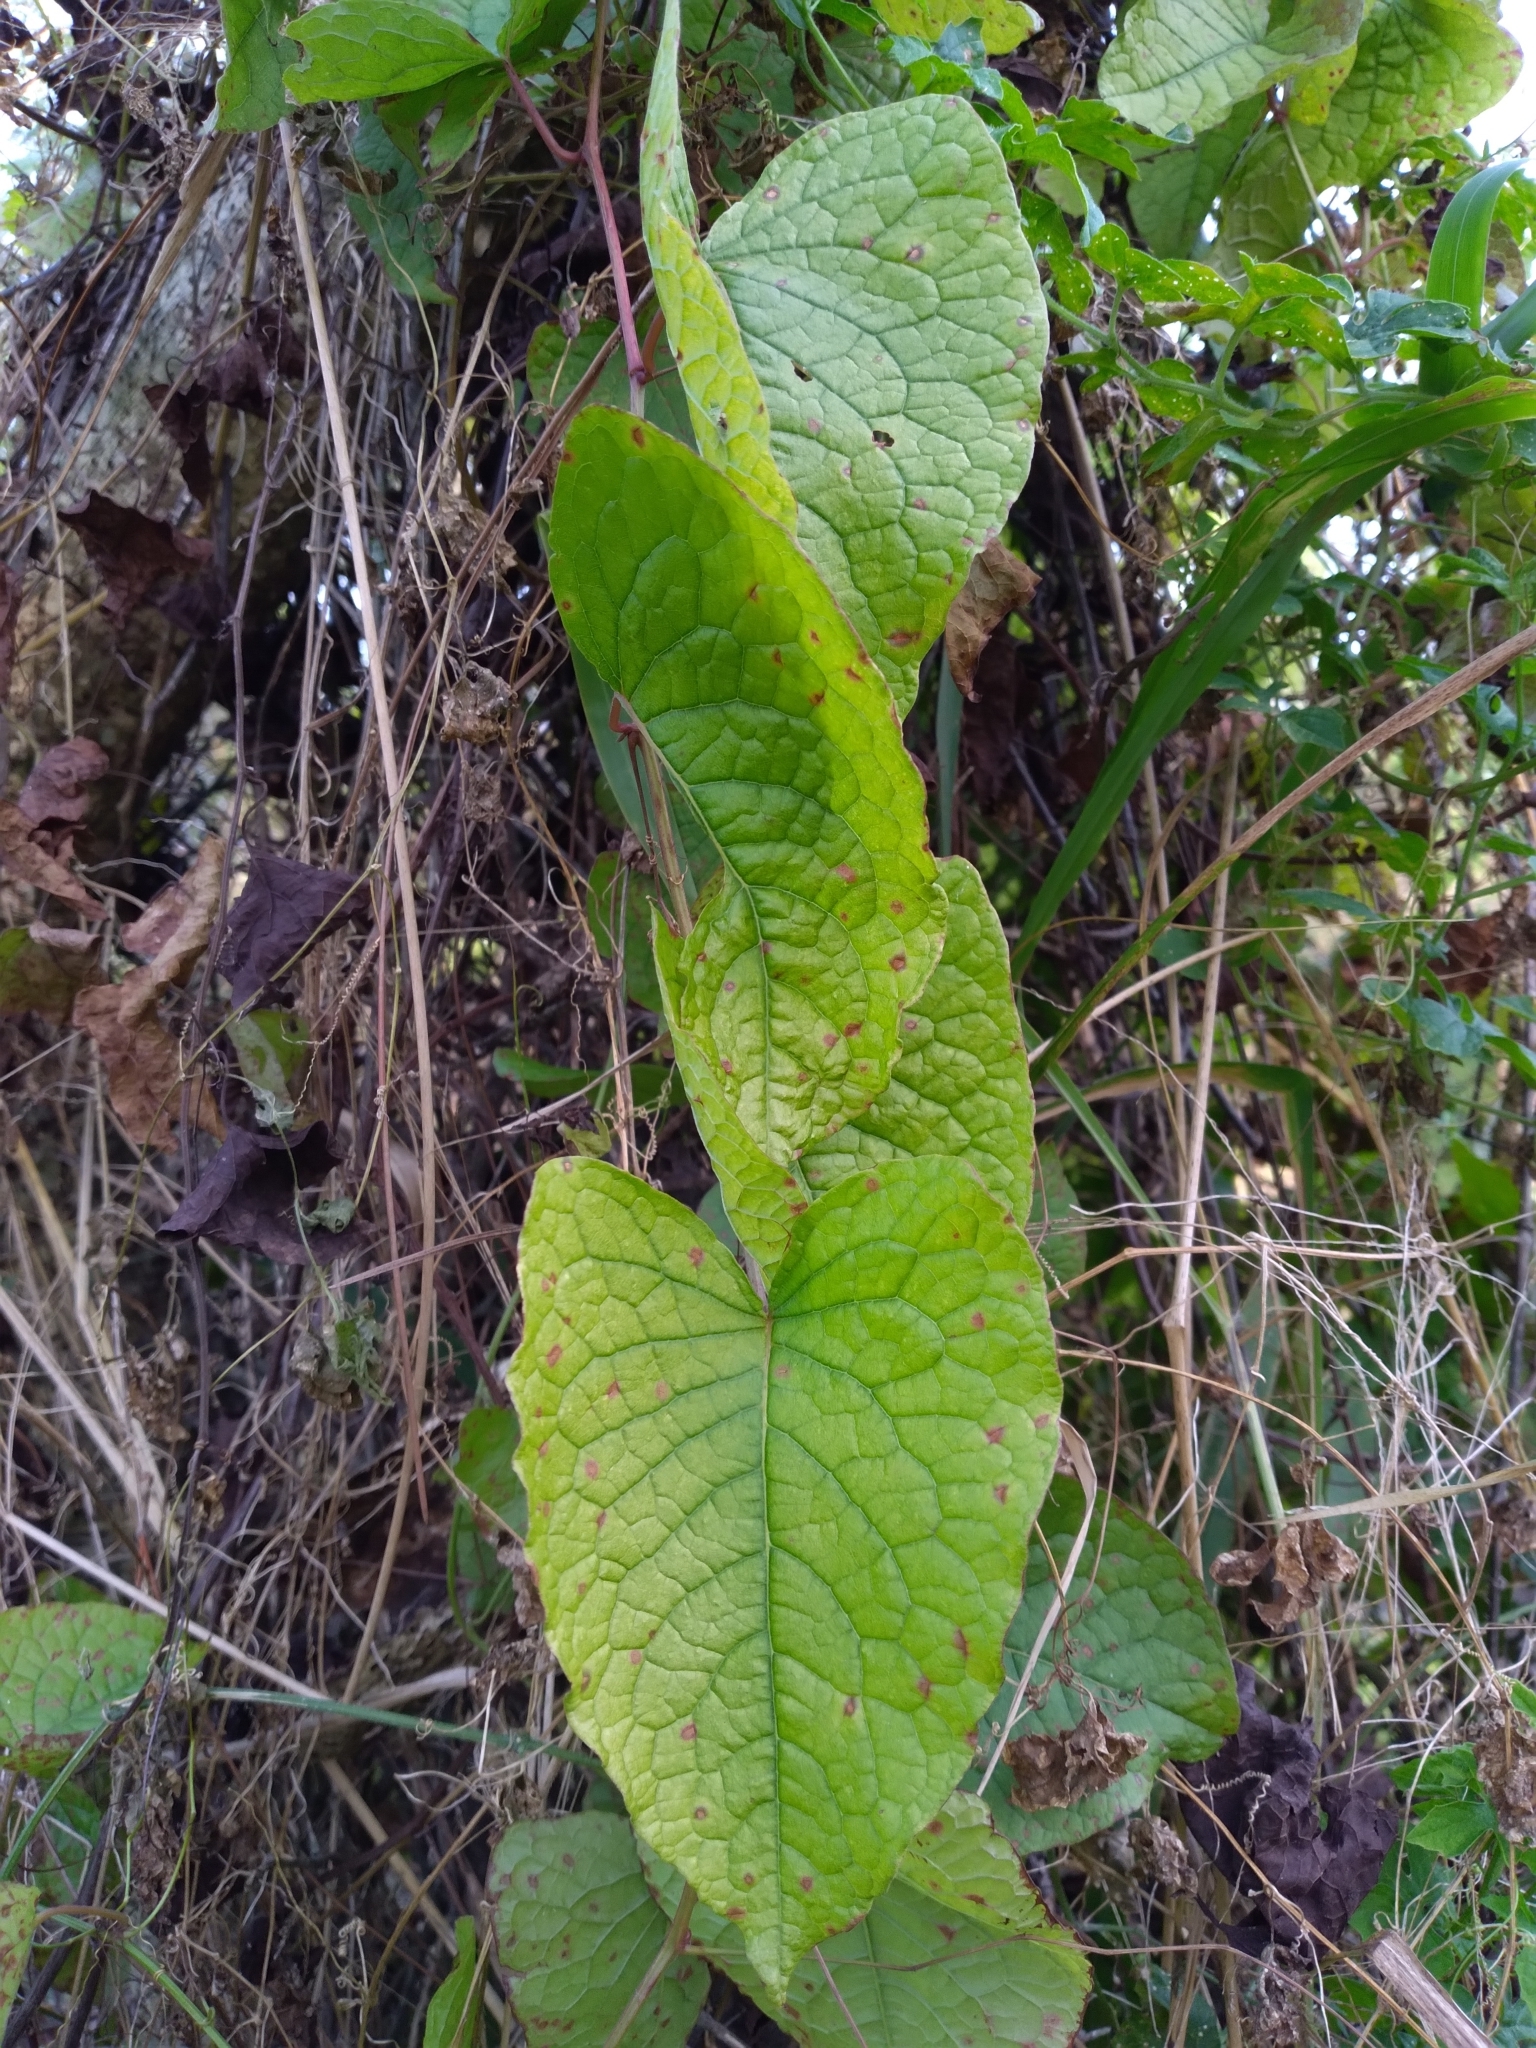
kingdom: Plantae
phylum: Tracheophyta
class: Magnoliopsida
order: Caryophyllales
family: Polygonaceae
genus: Antigonon
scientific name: Antigonon leptopus
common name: Coral vine
